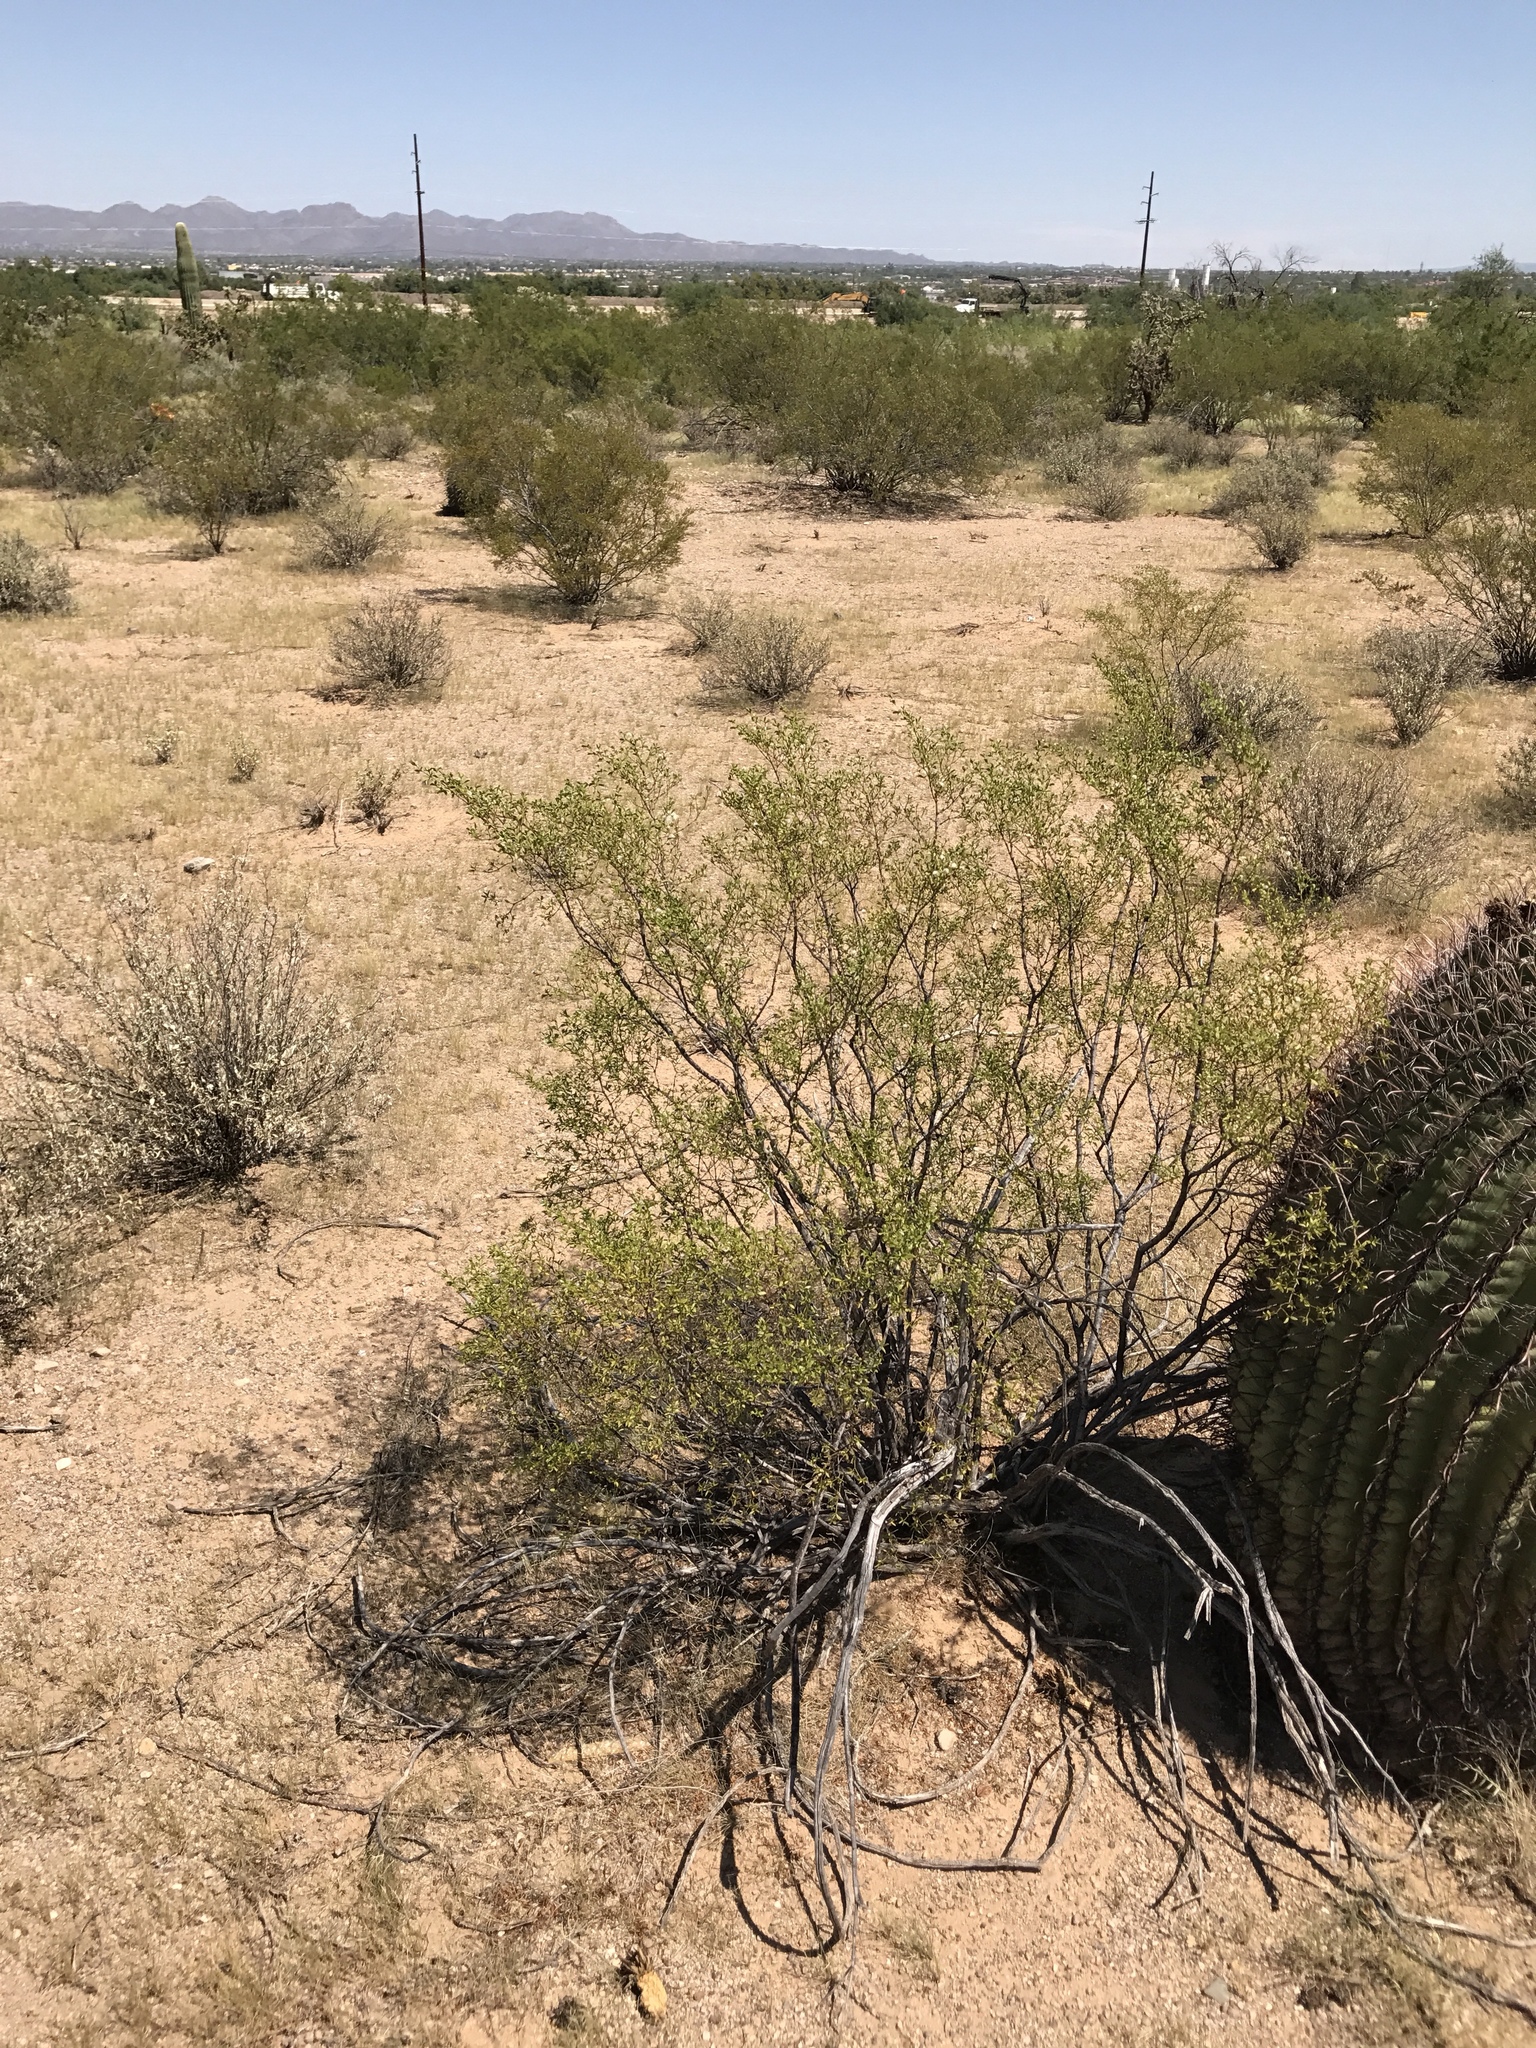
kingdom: Plantae
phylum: Tracheophyta
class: Magnoliopsida
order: Zygophyllales
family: Zygophyllaceae
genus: Larrea
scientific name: Larrea tridentata
